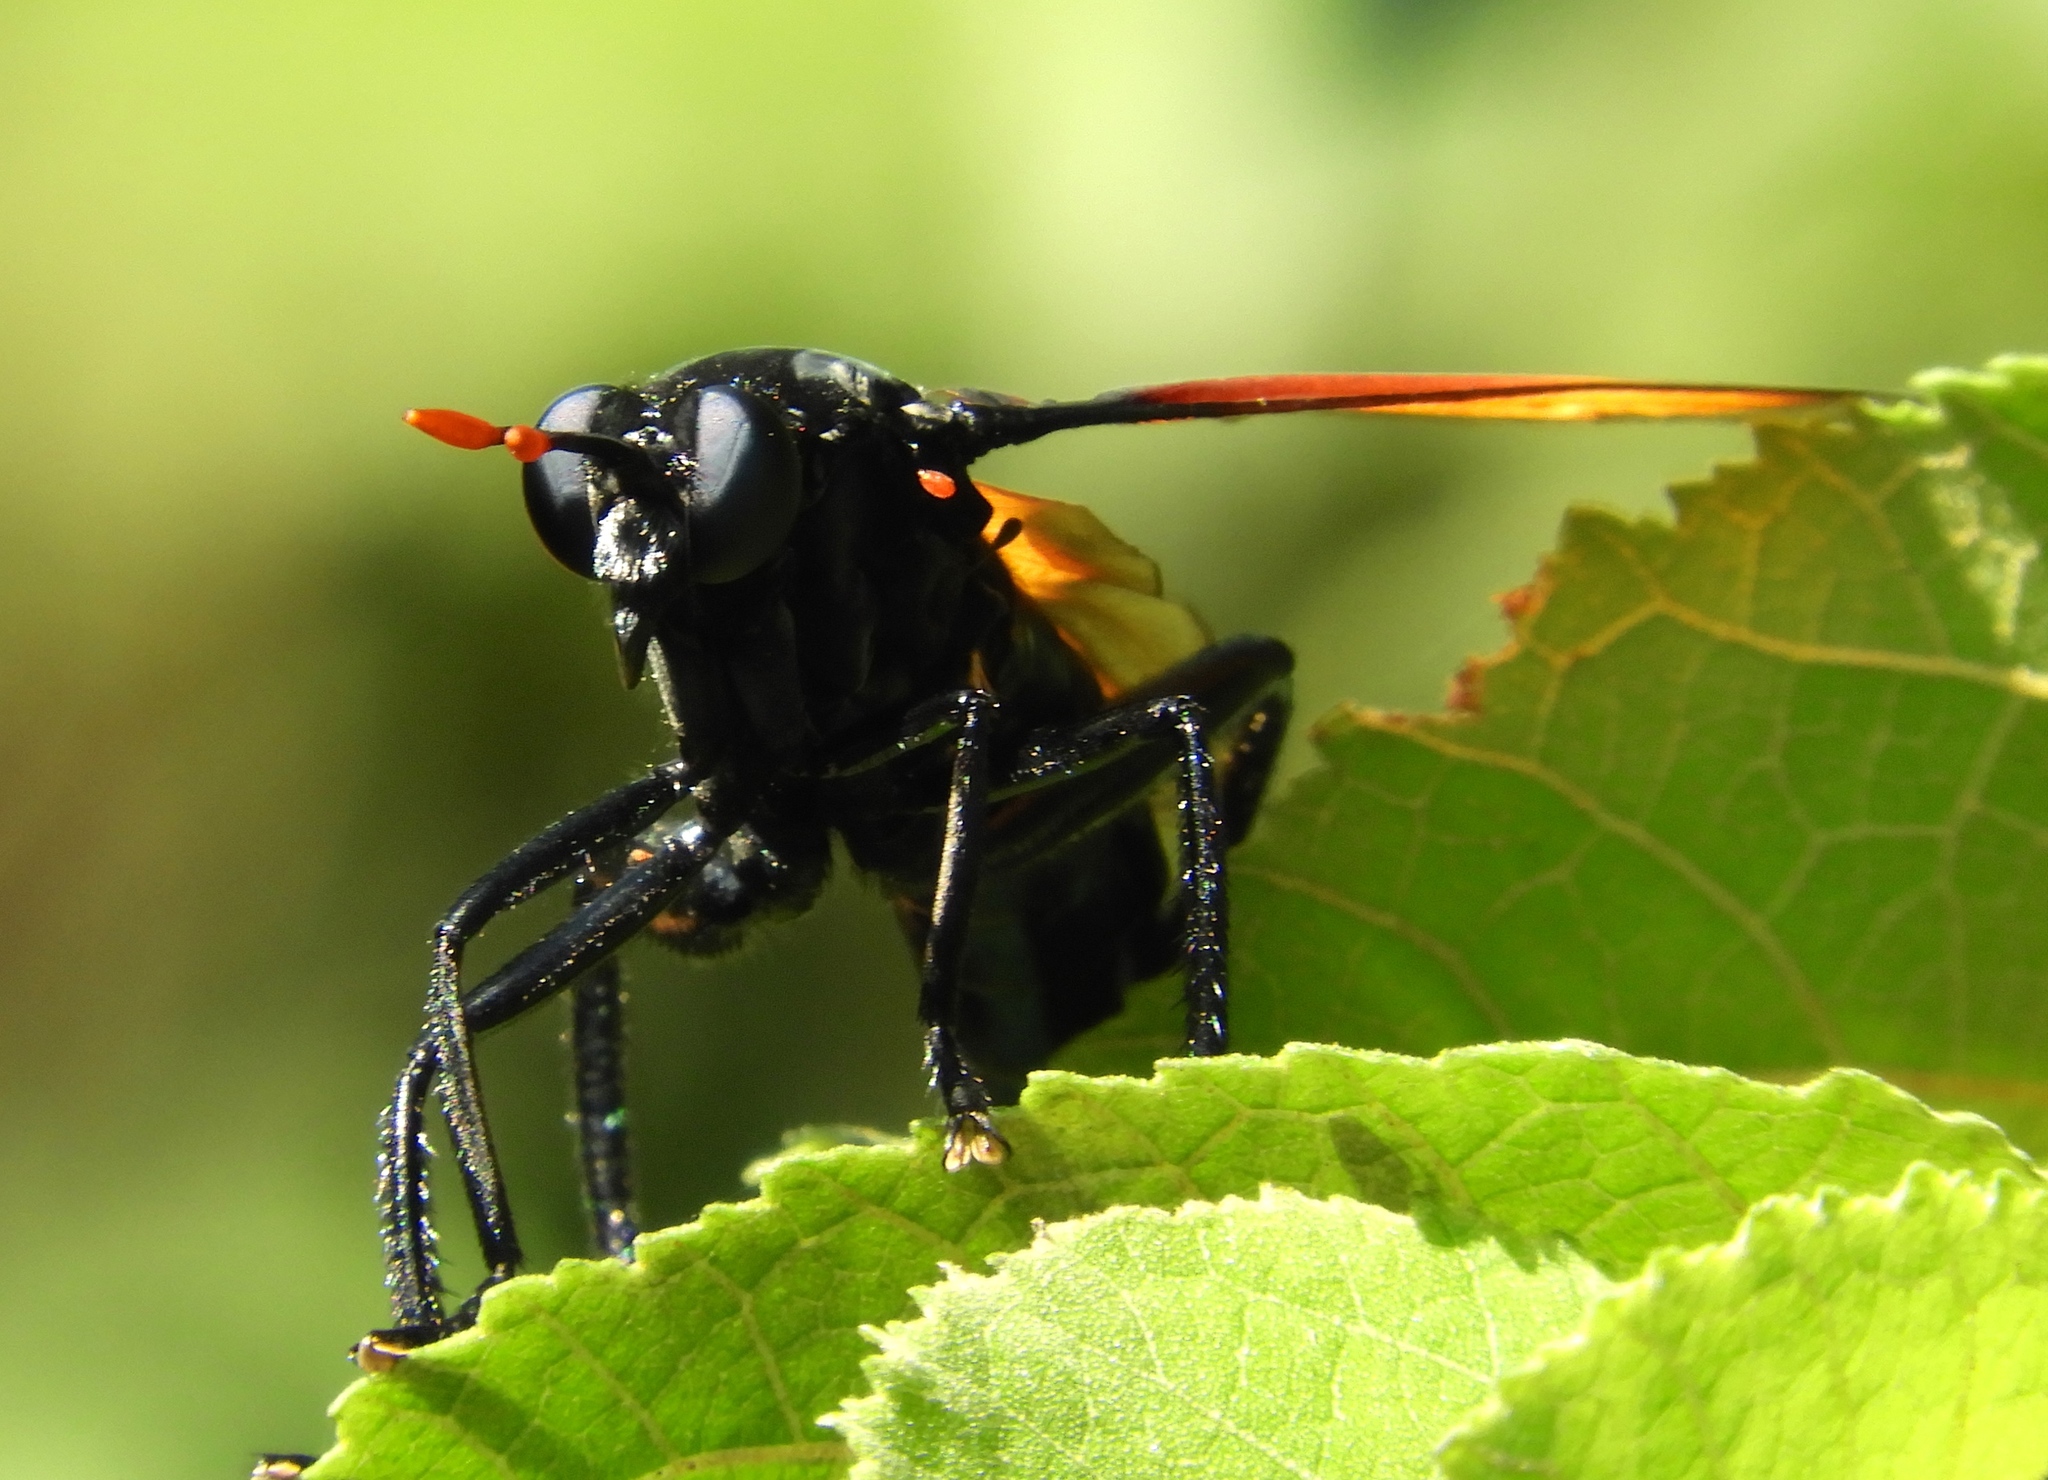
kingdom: Animalia
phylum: Arthropoda
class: Insecta
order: Diptera
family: Mydidae
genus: Mydas
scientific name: Mydas rubidapex
